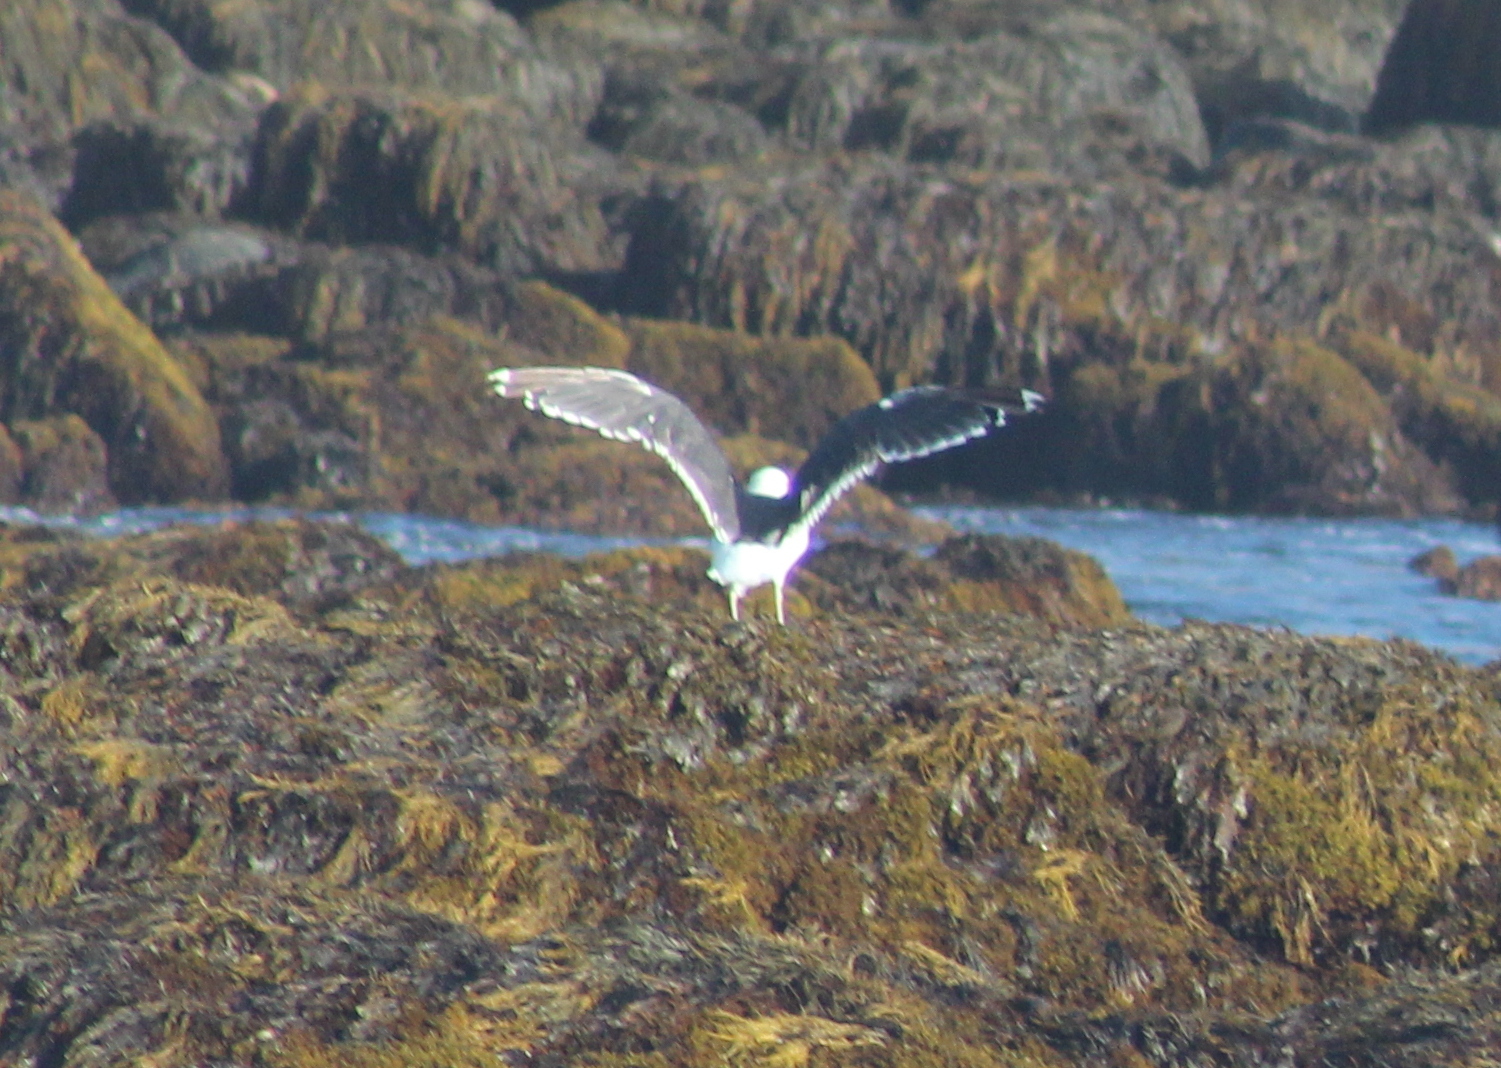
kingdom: Animalia
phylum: Chordata
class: Aves
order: Charadriiformes
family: Laridae
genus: Larus
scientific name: Larus marinus
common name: Great black-backed gull
